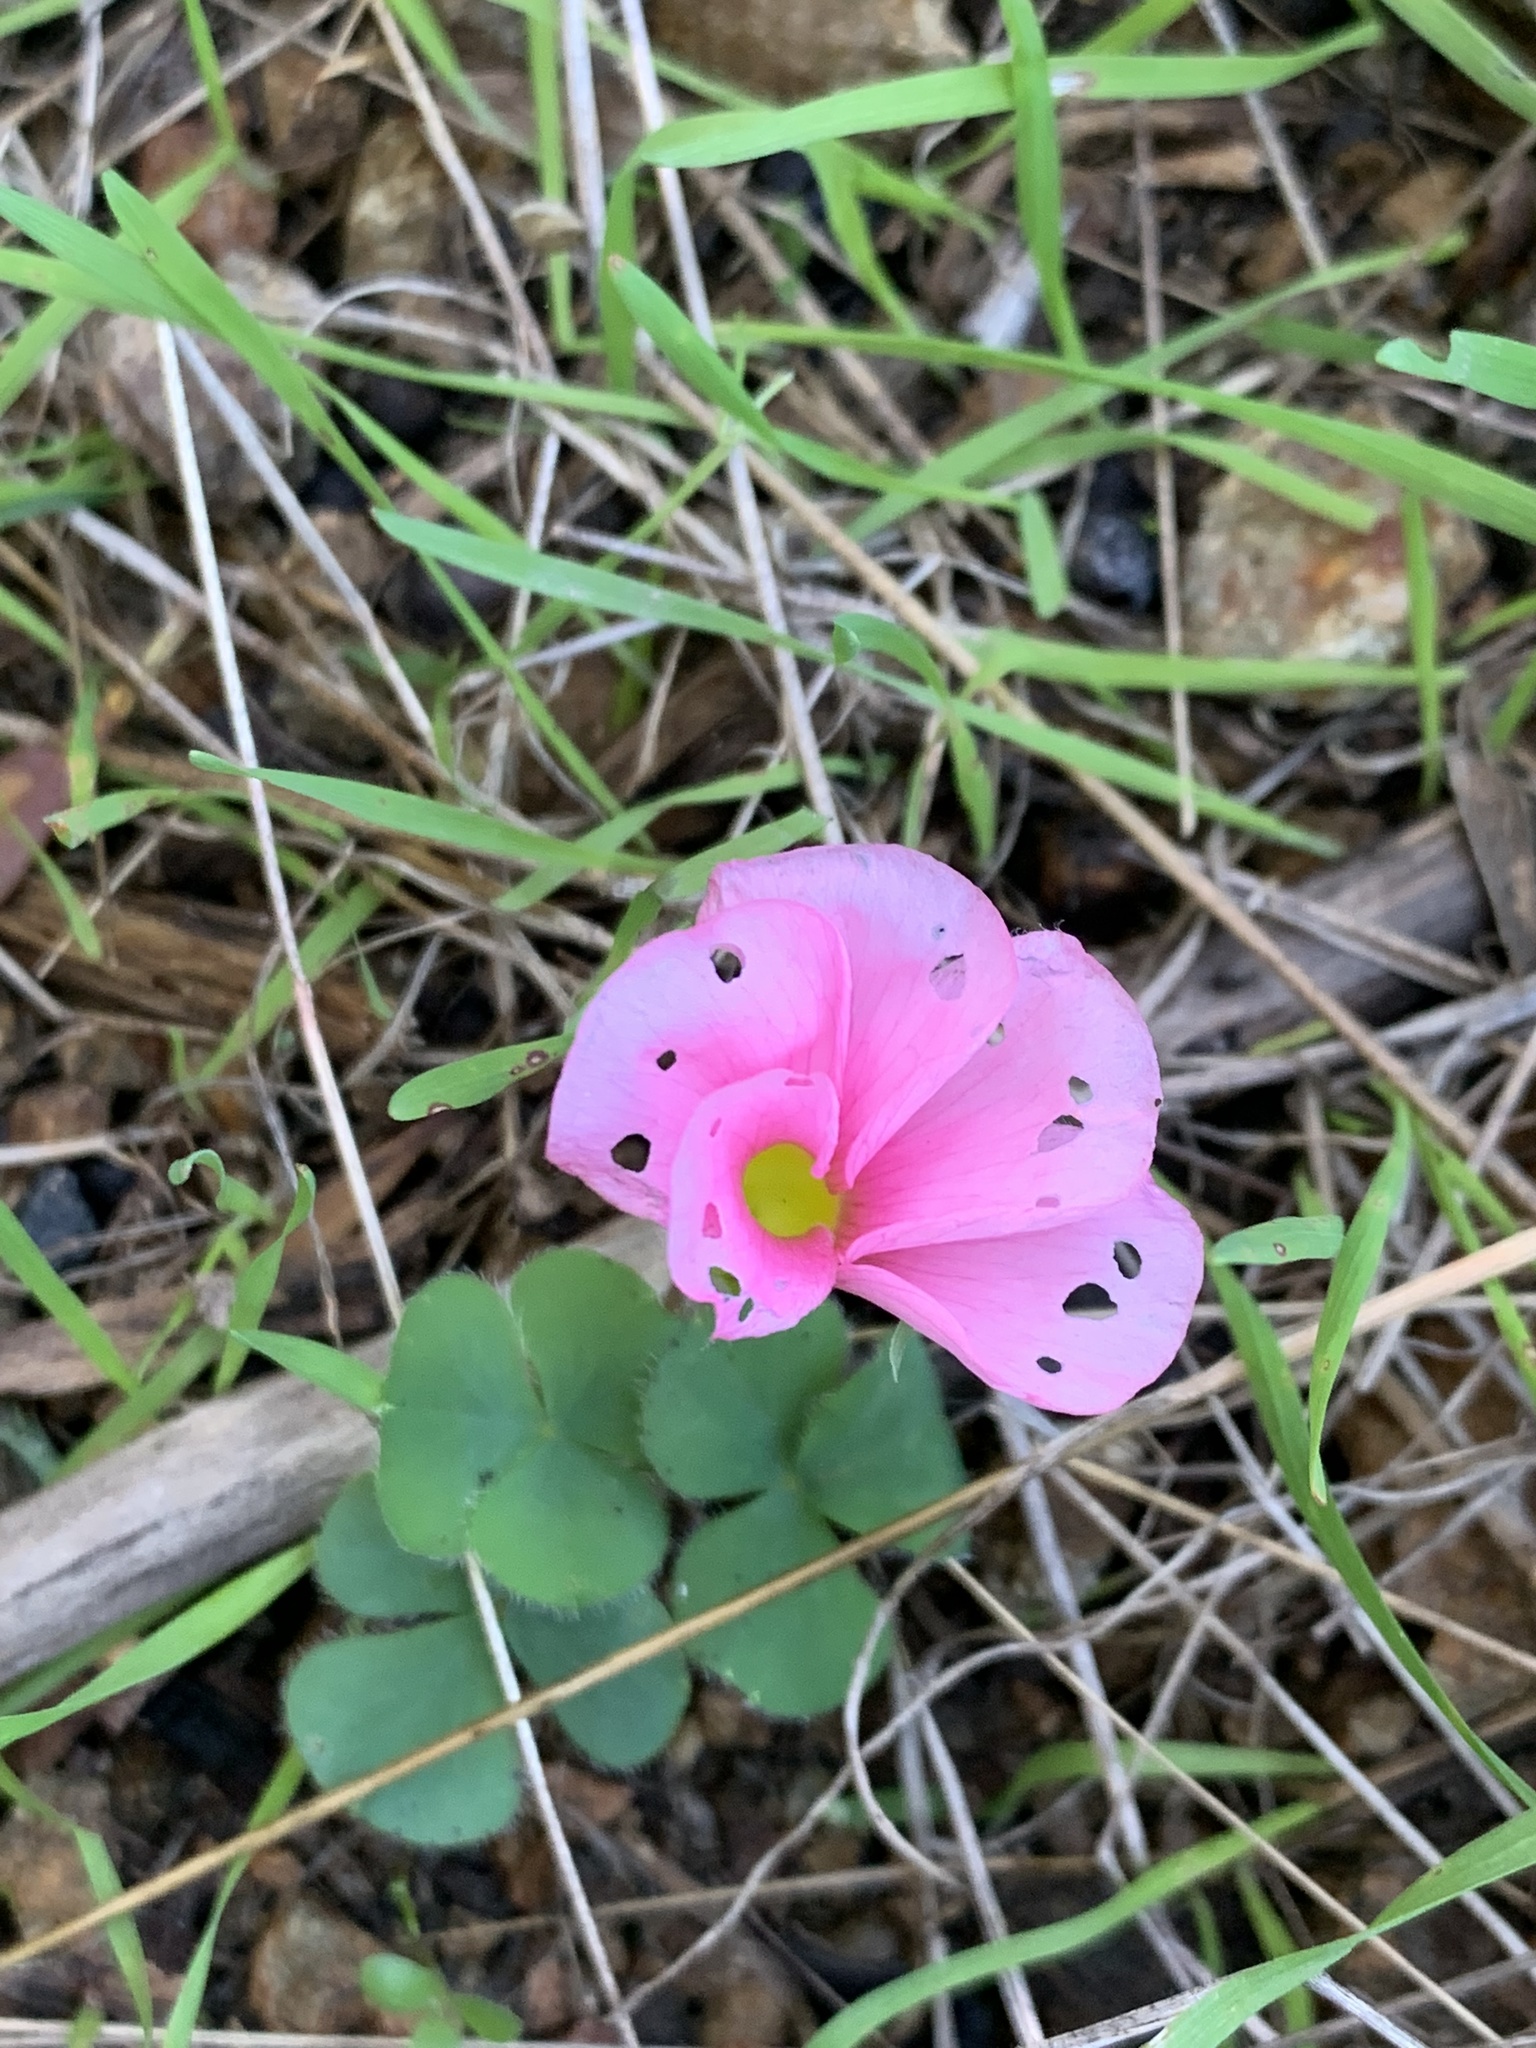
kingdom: Plantae
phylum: Tracheophyta
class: Magnoliopsida
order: Oxalidales
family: Oxalidaceae
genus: Oxalis
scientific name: Oxalis purpurea
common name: Purple woodsorrel
